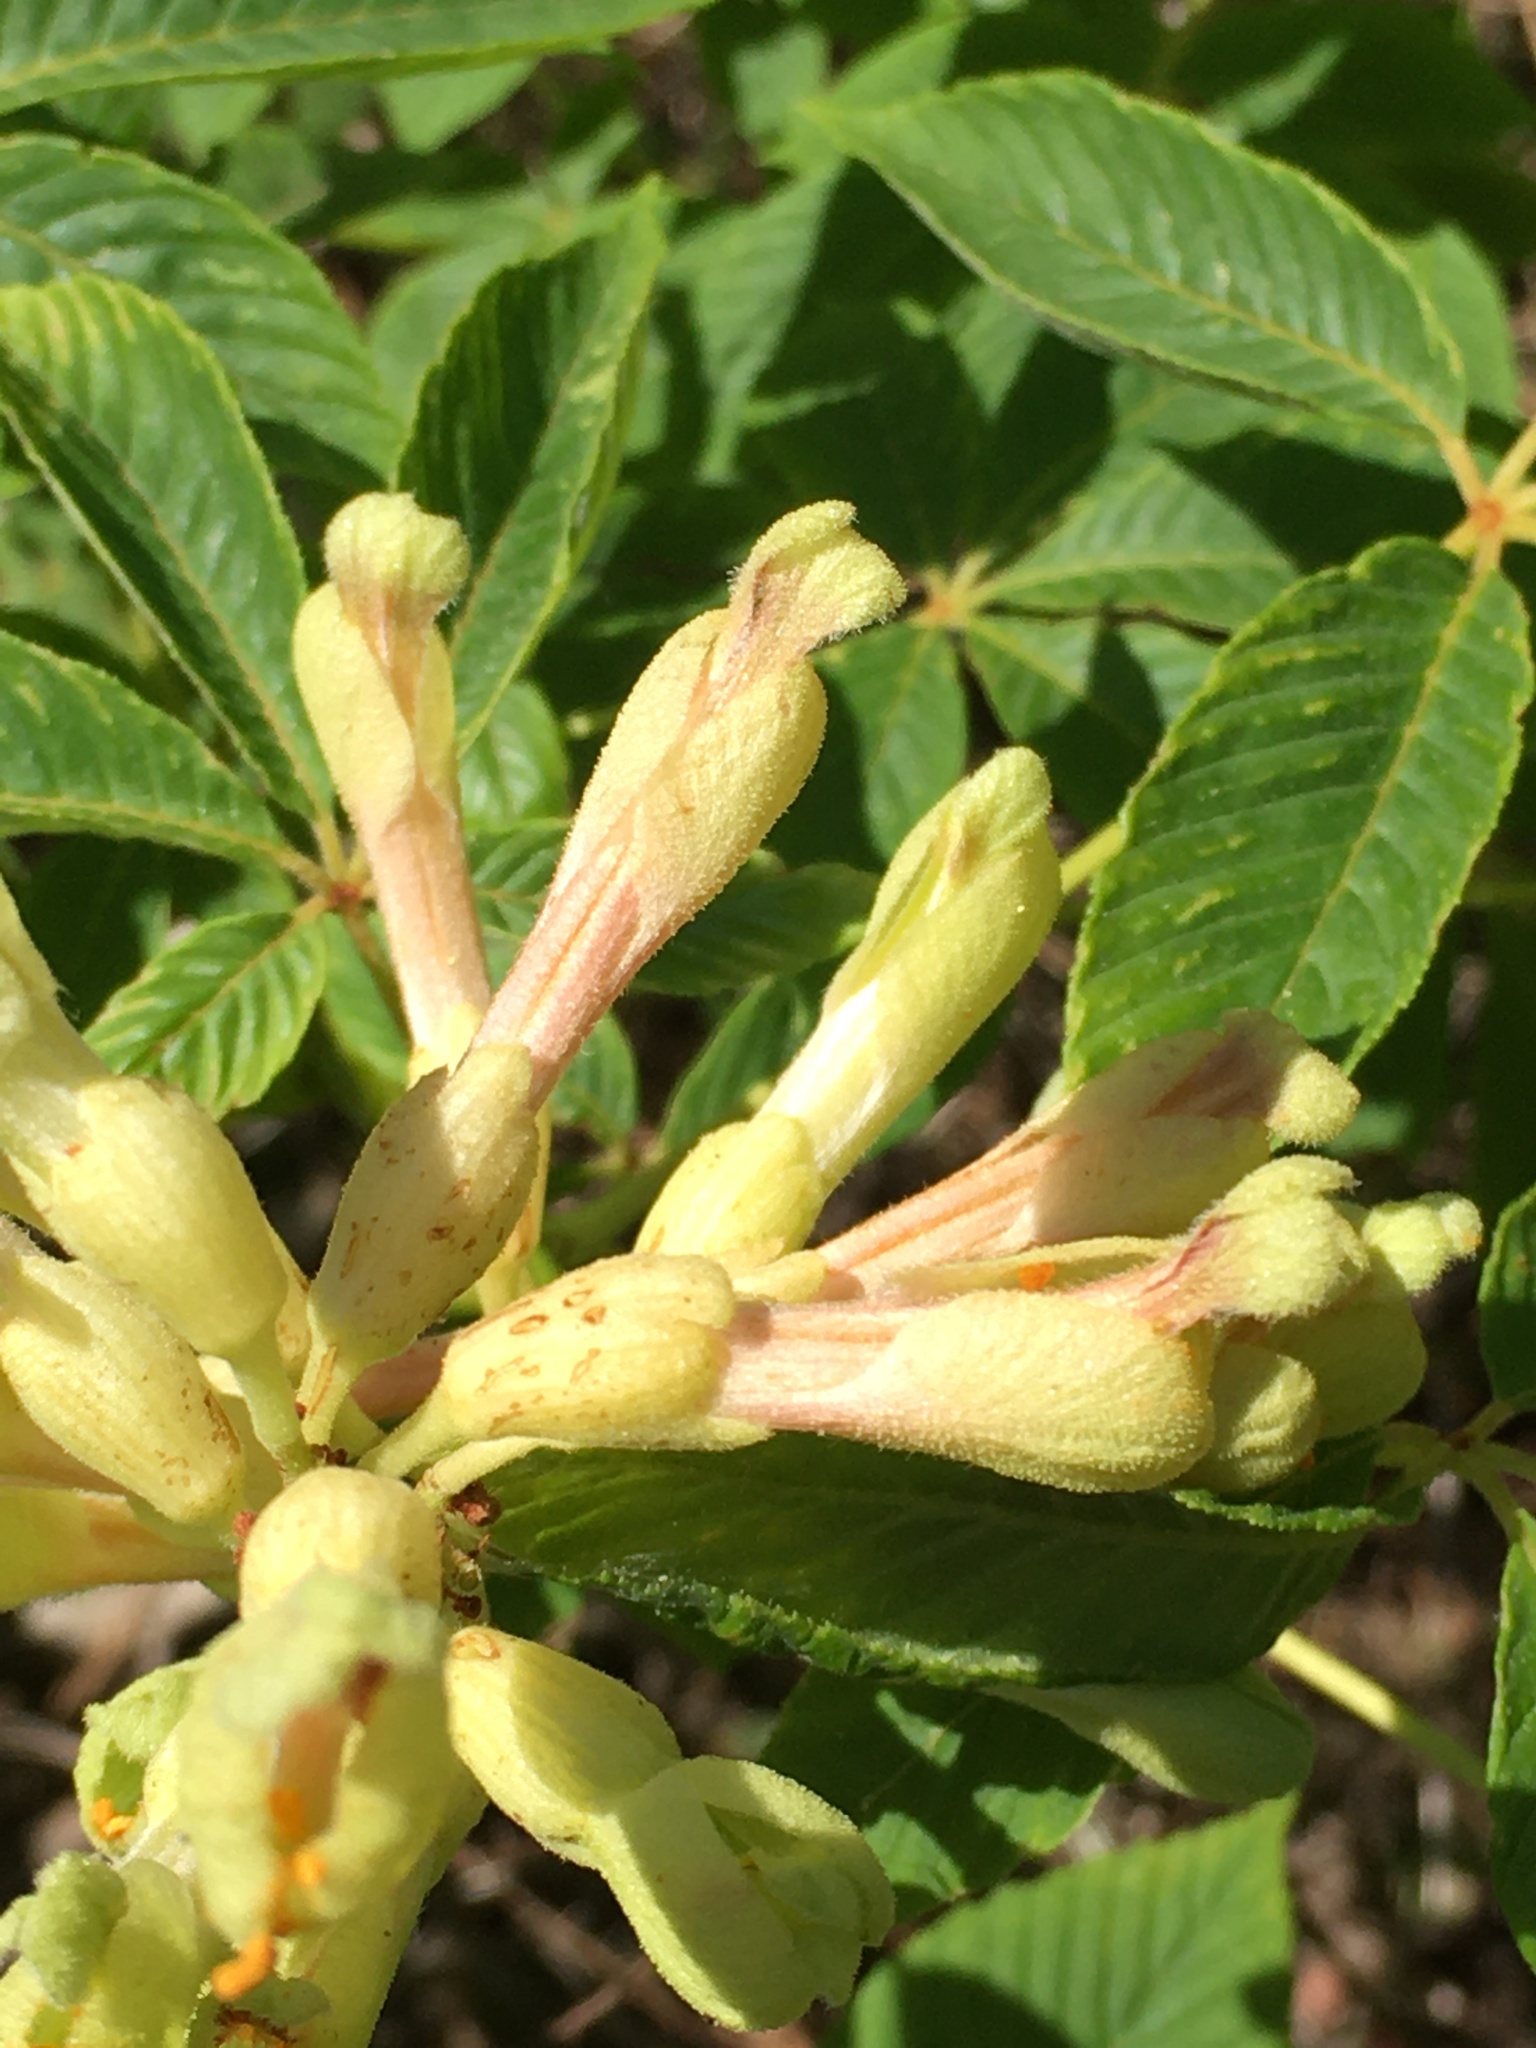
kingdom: Plantae
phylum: Tracheophyta
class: Magnoliopsida
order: Sapindales
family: Sapindaceae
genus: Aesculus
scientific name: Aesculus sylvatica
